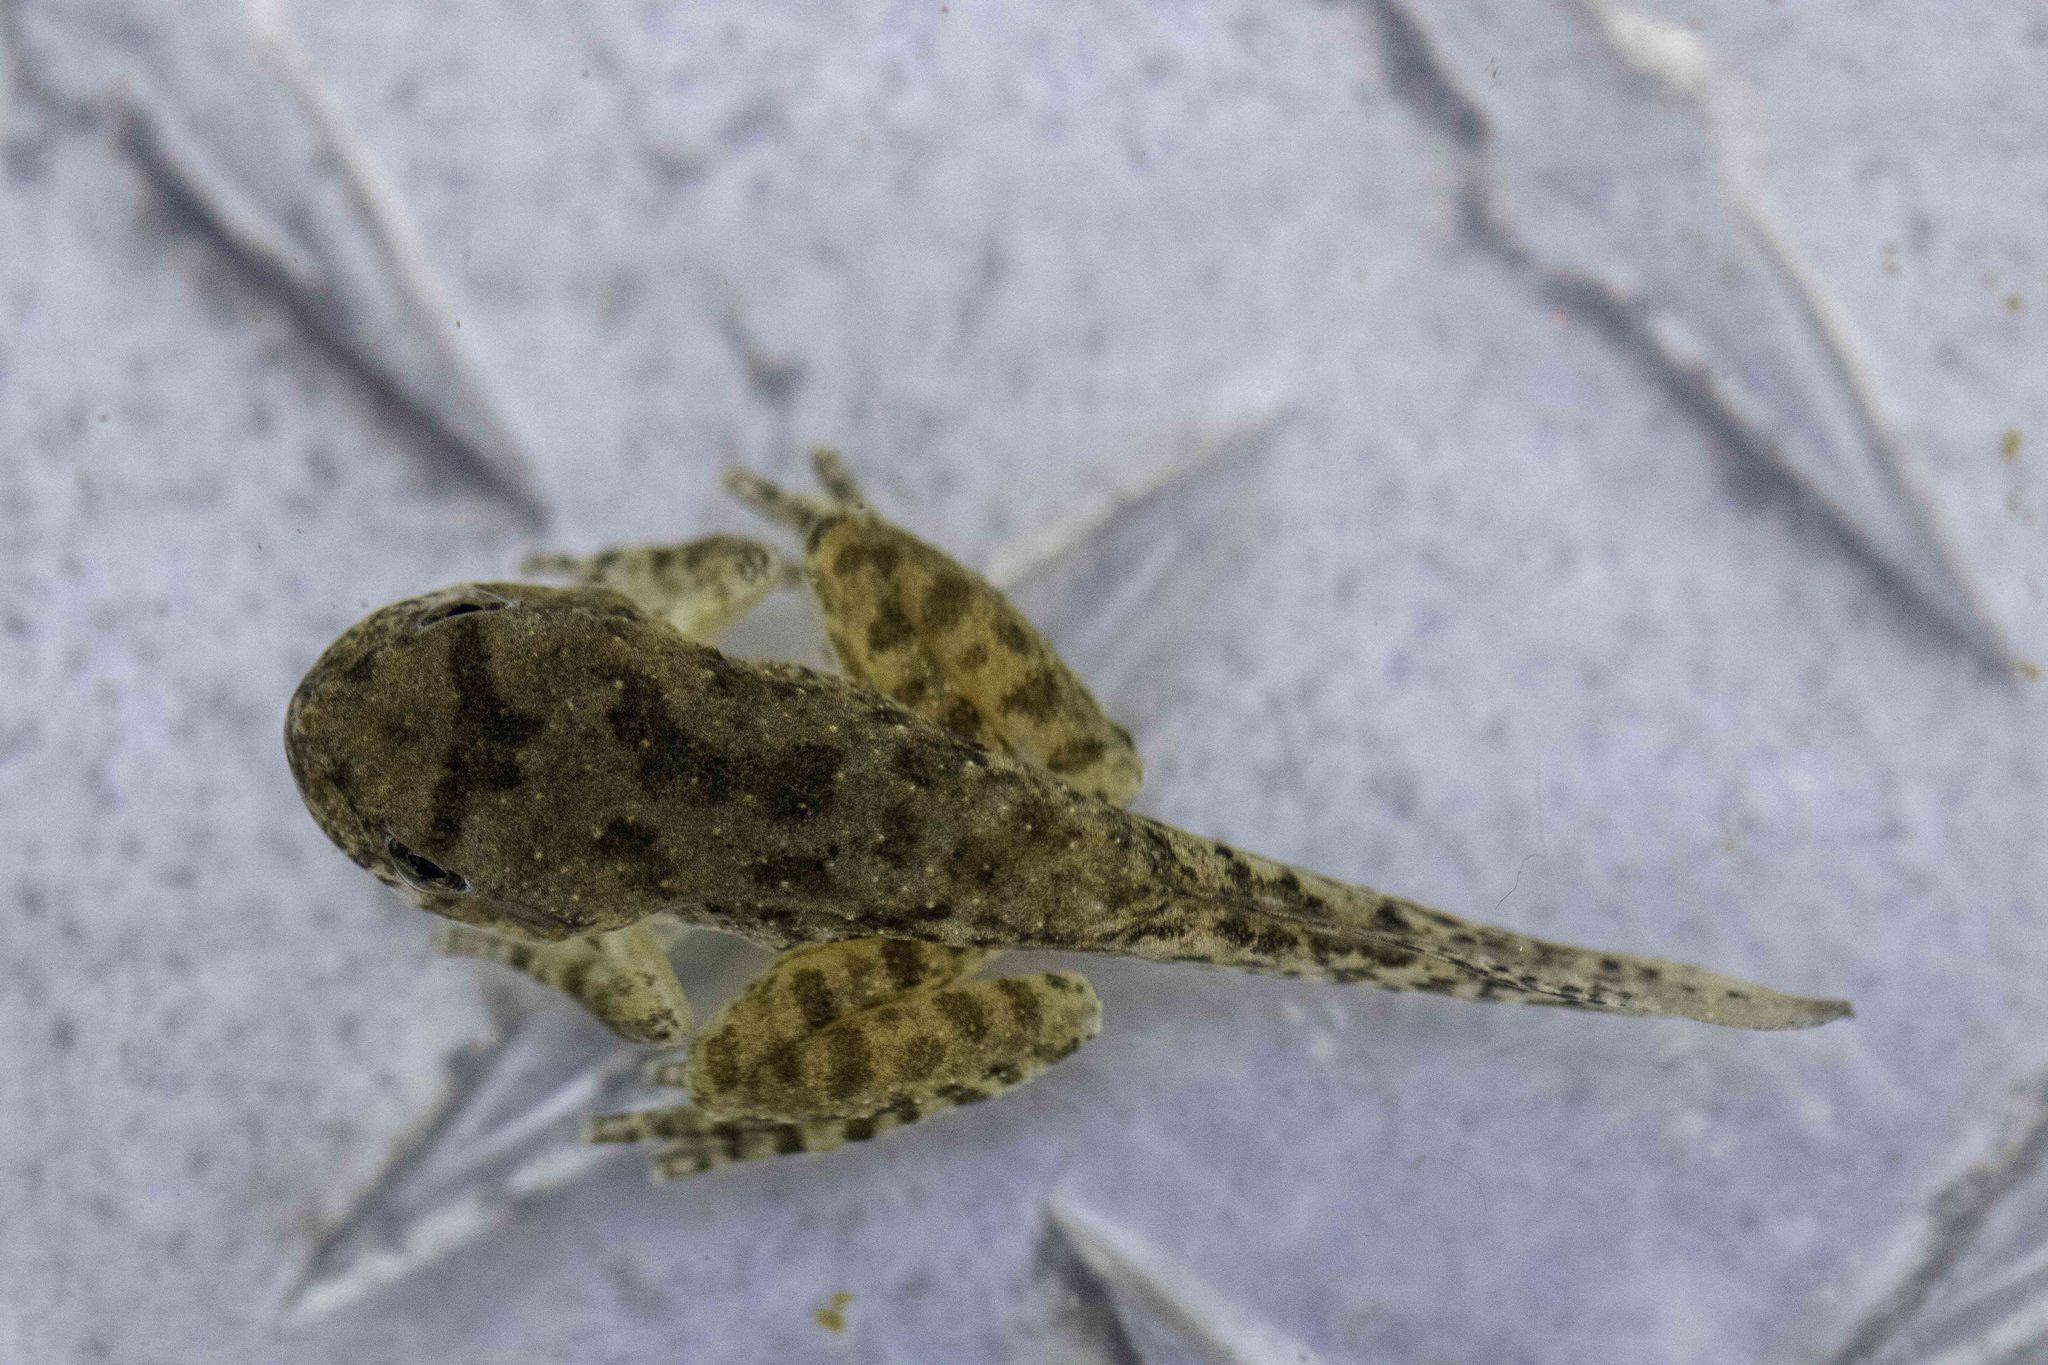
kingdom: Animalia
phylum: Chordata
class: Amphibia
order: Anura
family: Hylidae
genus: Pseudacris
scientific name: Pseudacris cadaverina
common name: California chorus frog
